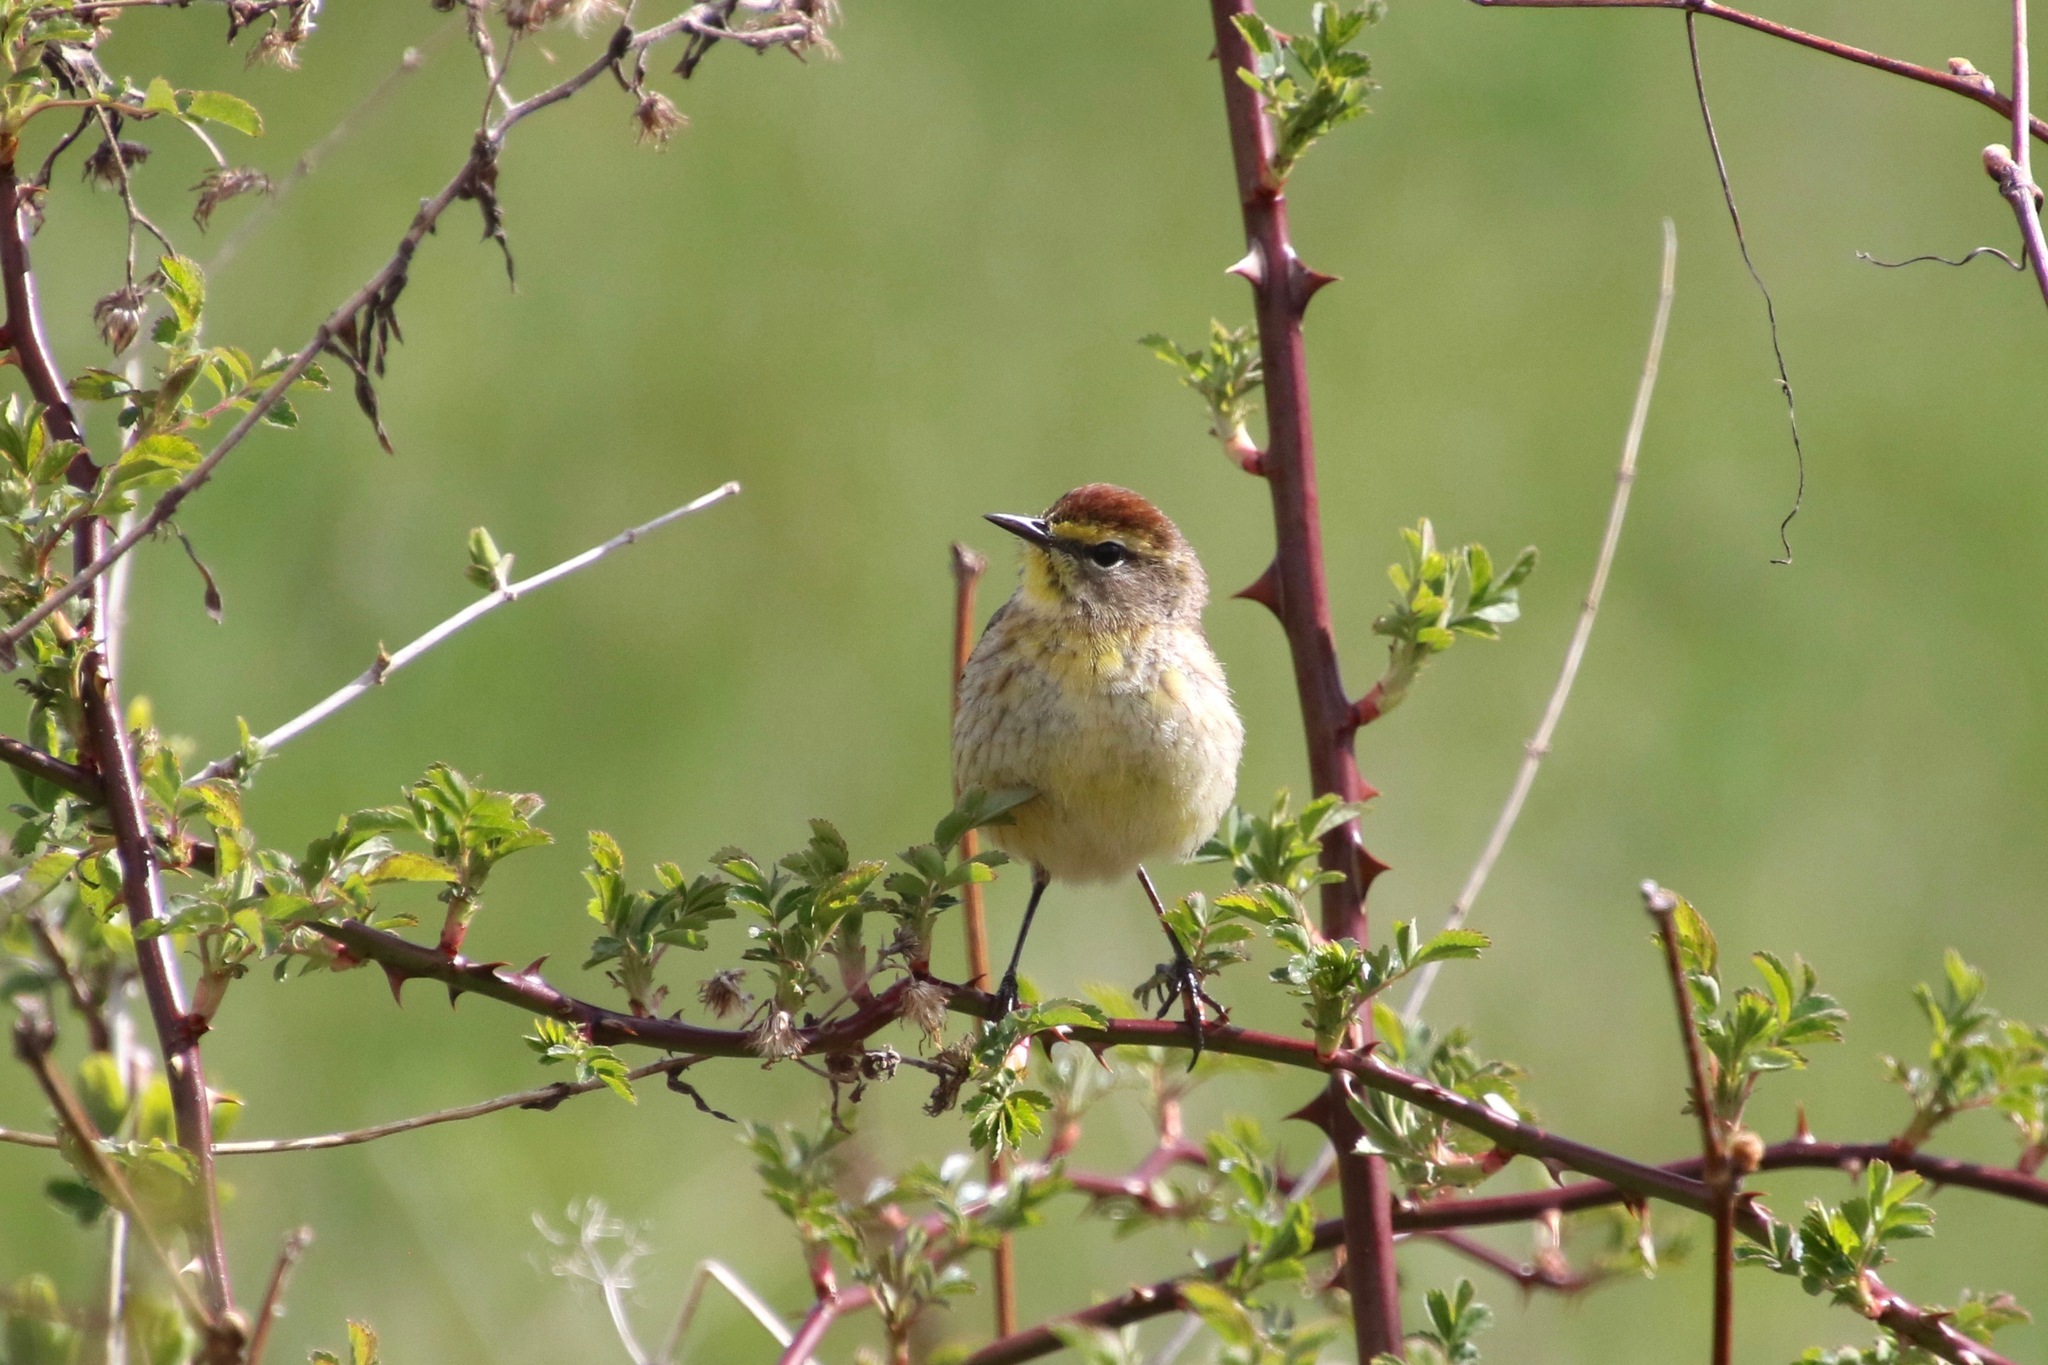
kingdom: Animalia
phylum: Chordata
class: Aves
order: Passeriformes
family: Parulidae
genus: Setophaga
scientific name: Setophaga palmarum
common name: Palm warbler
